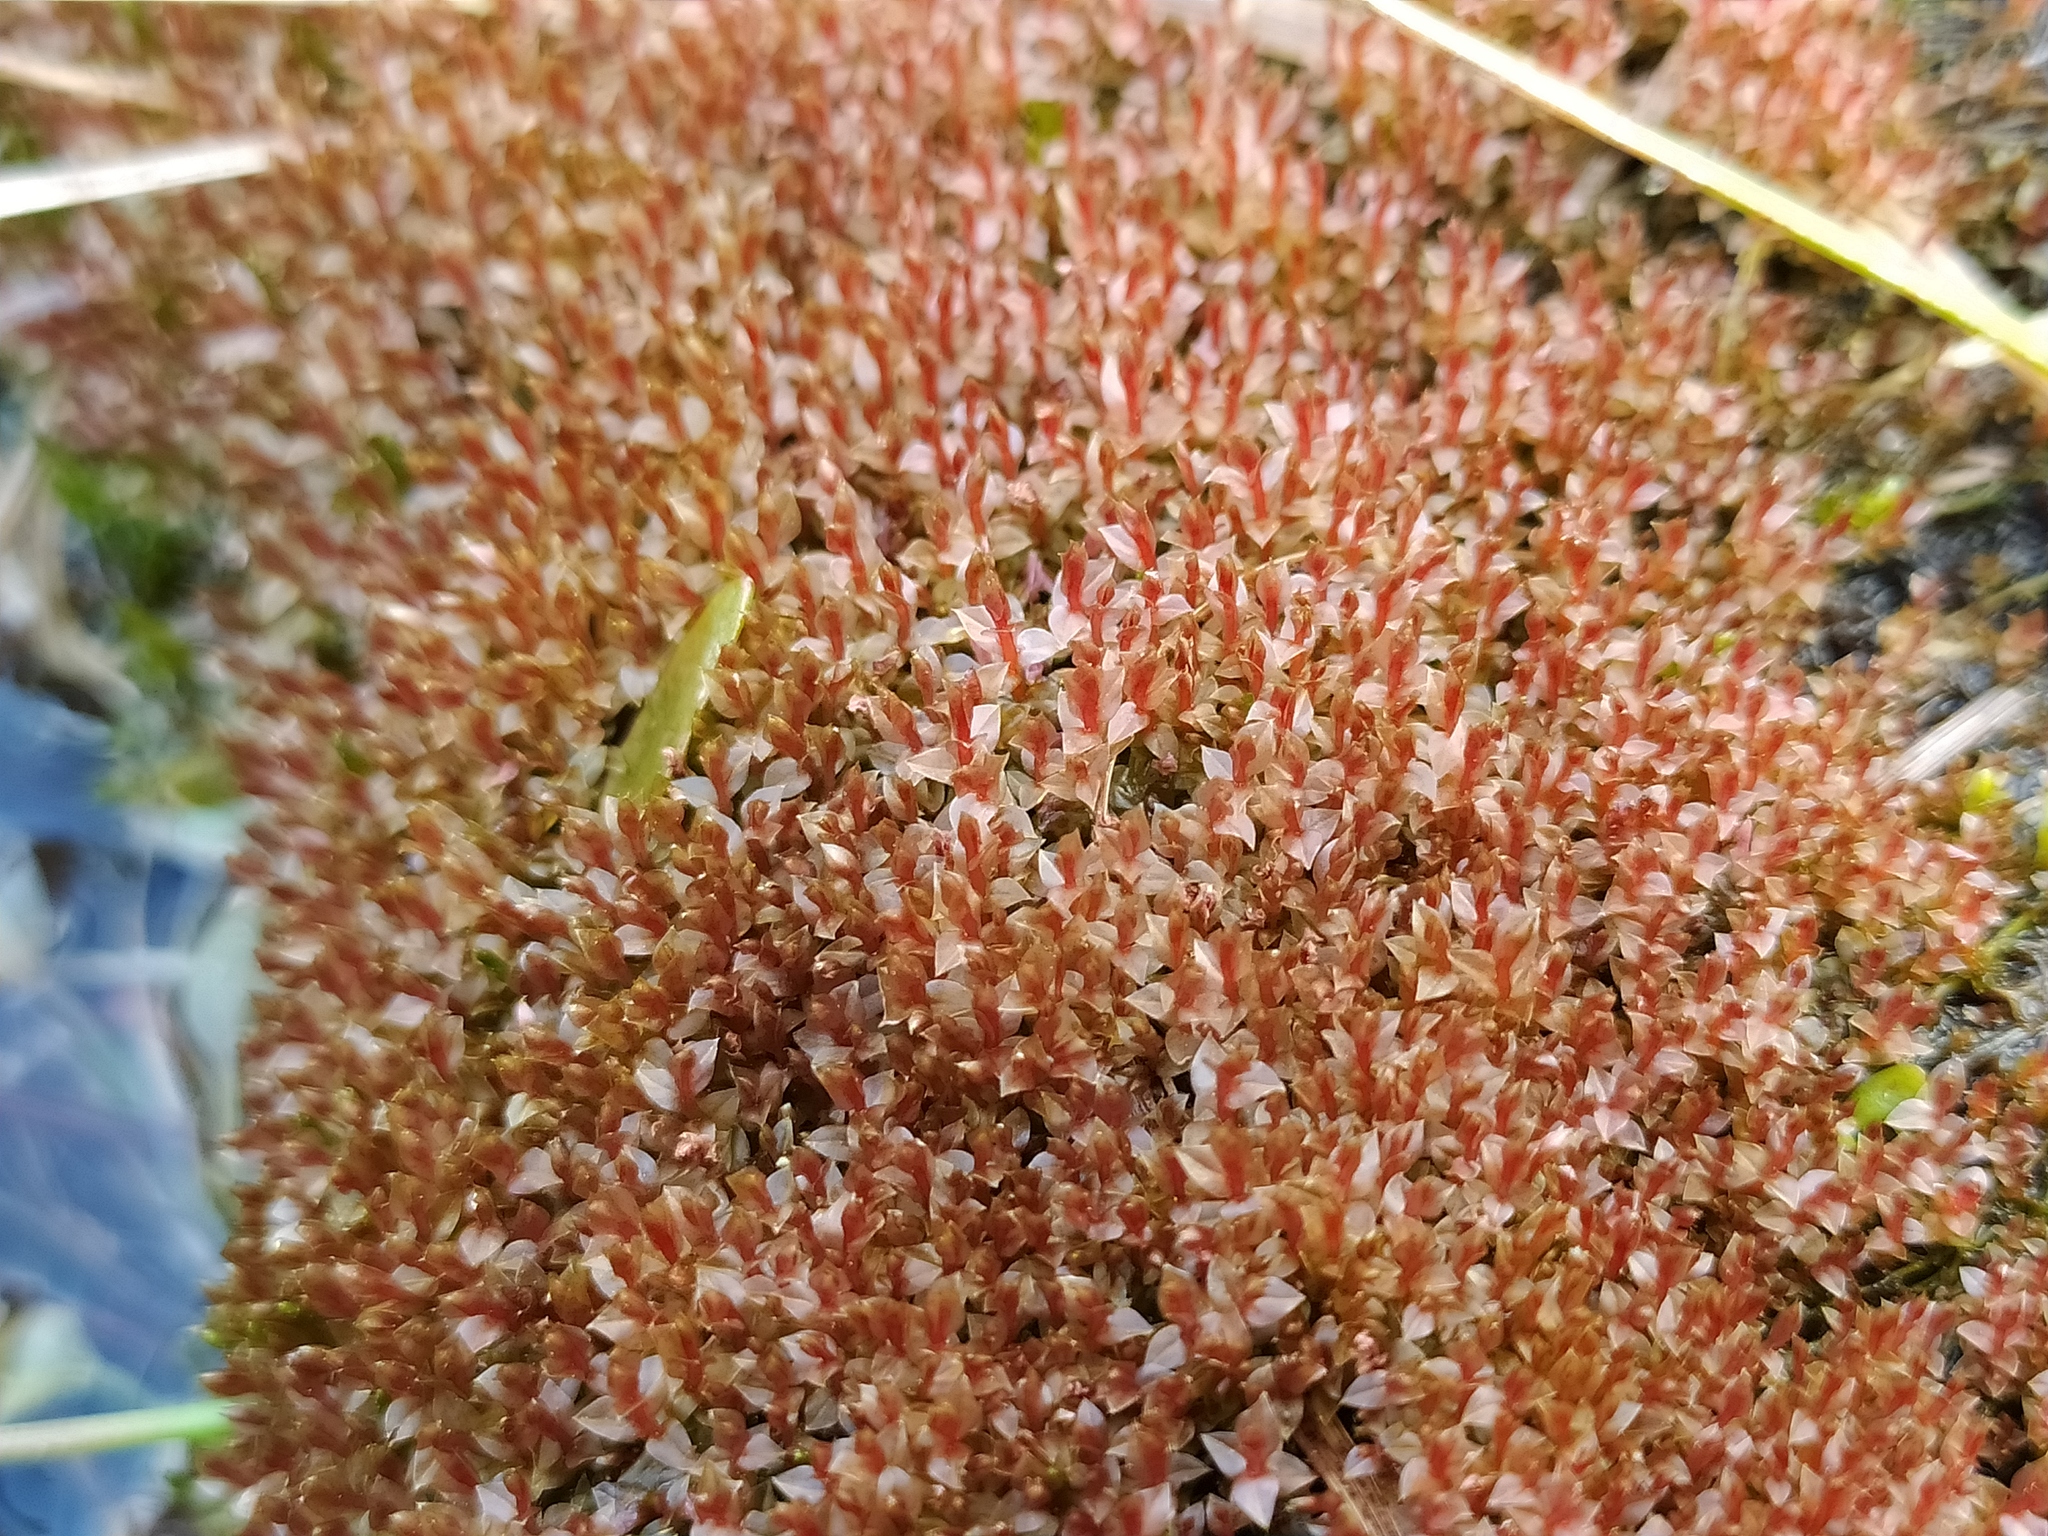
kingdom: Plantae
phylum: Bryophyta
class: Bryopsida
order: Bryales
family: Bryaceae
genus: Ptychostomum
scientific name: Ptychostomum weigelii
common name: Weigel's bryum moss
